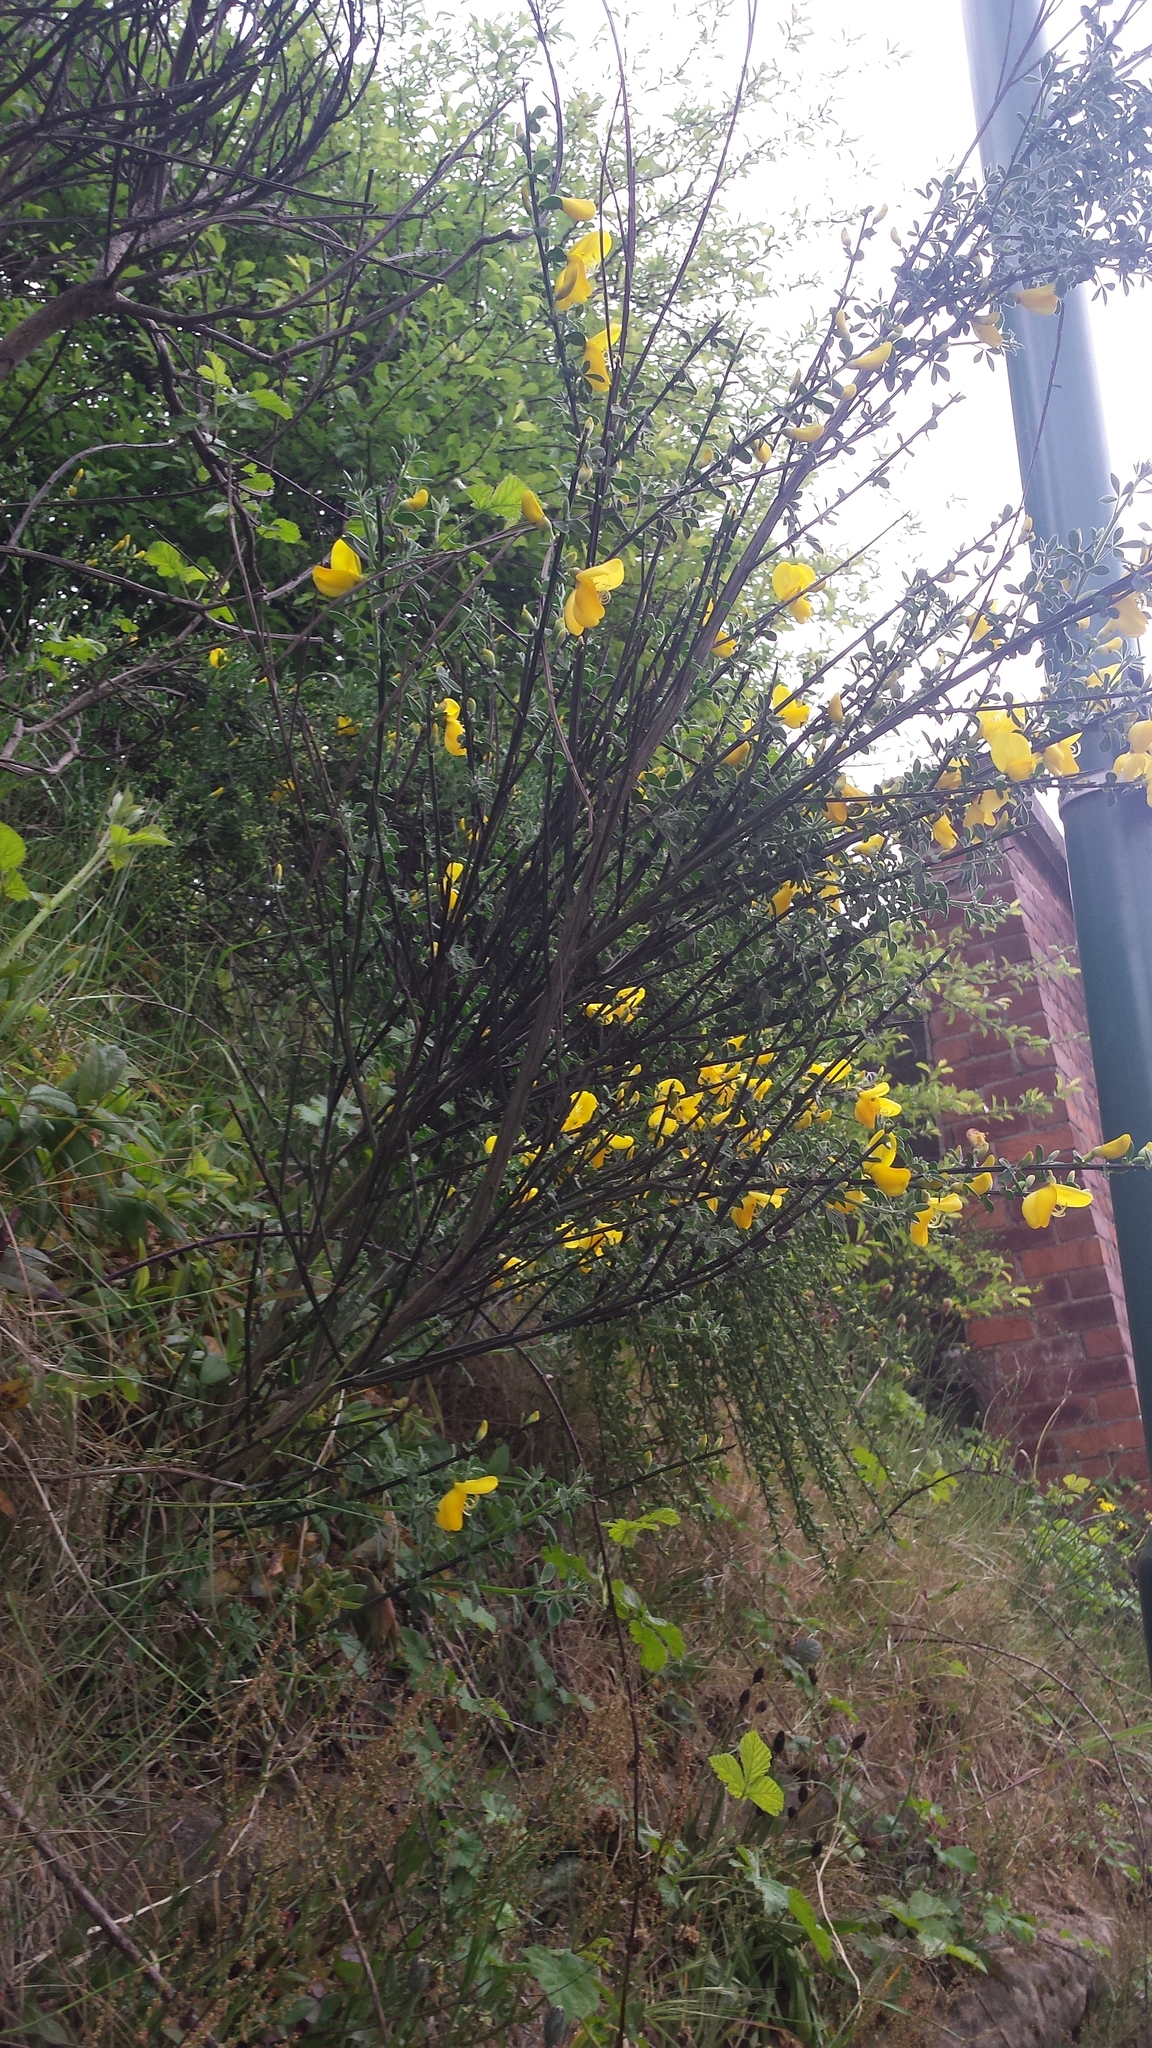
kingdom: Plantae
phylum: Tracheophyta
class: Magnoliopsida
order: Fabales
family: Fabaceae
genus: Cytisus
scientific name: Cytisus scoparius
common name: Scotch broom
